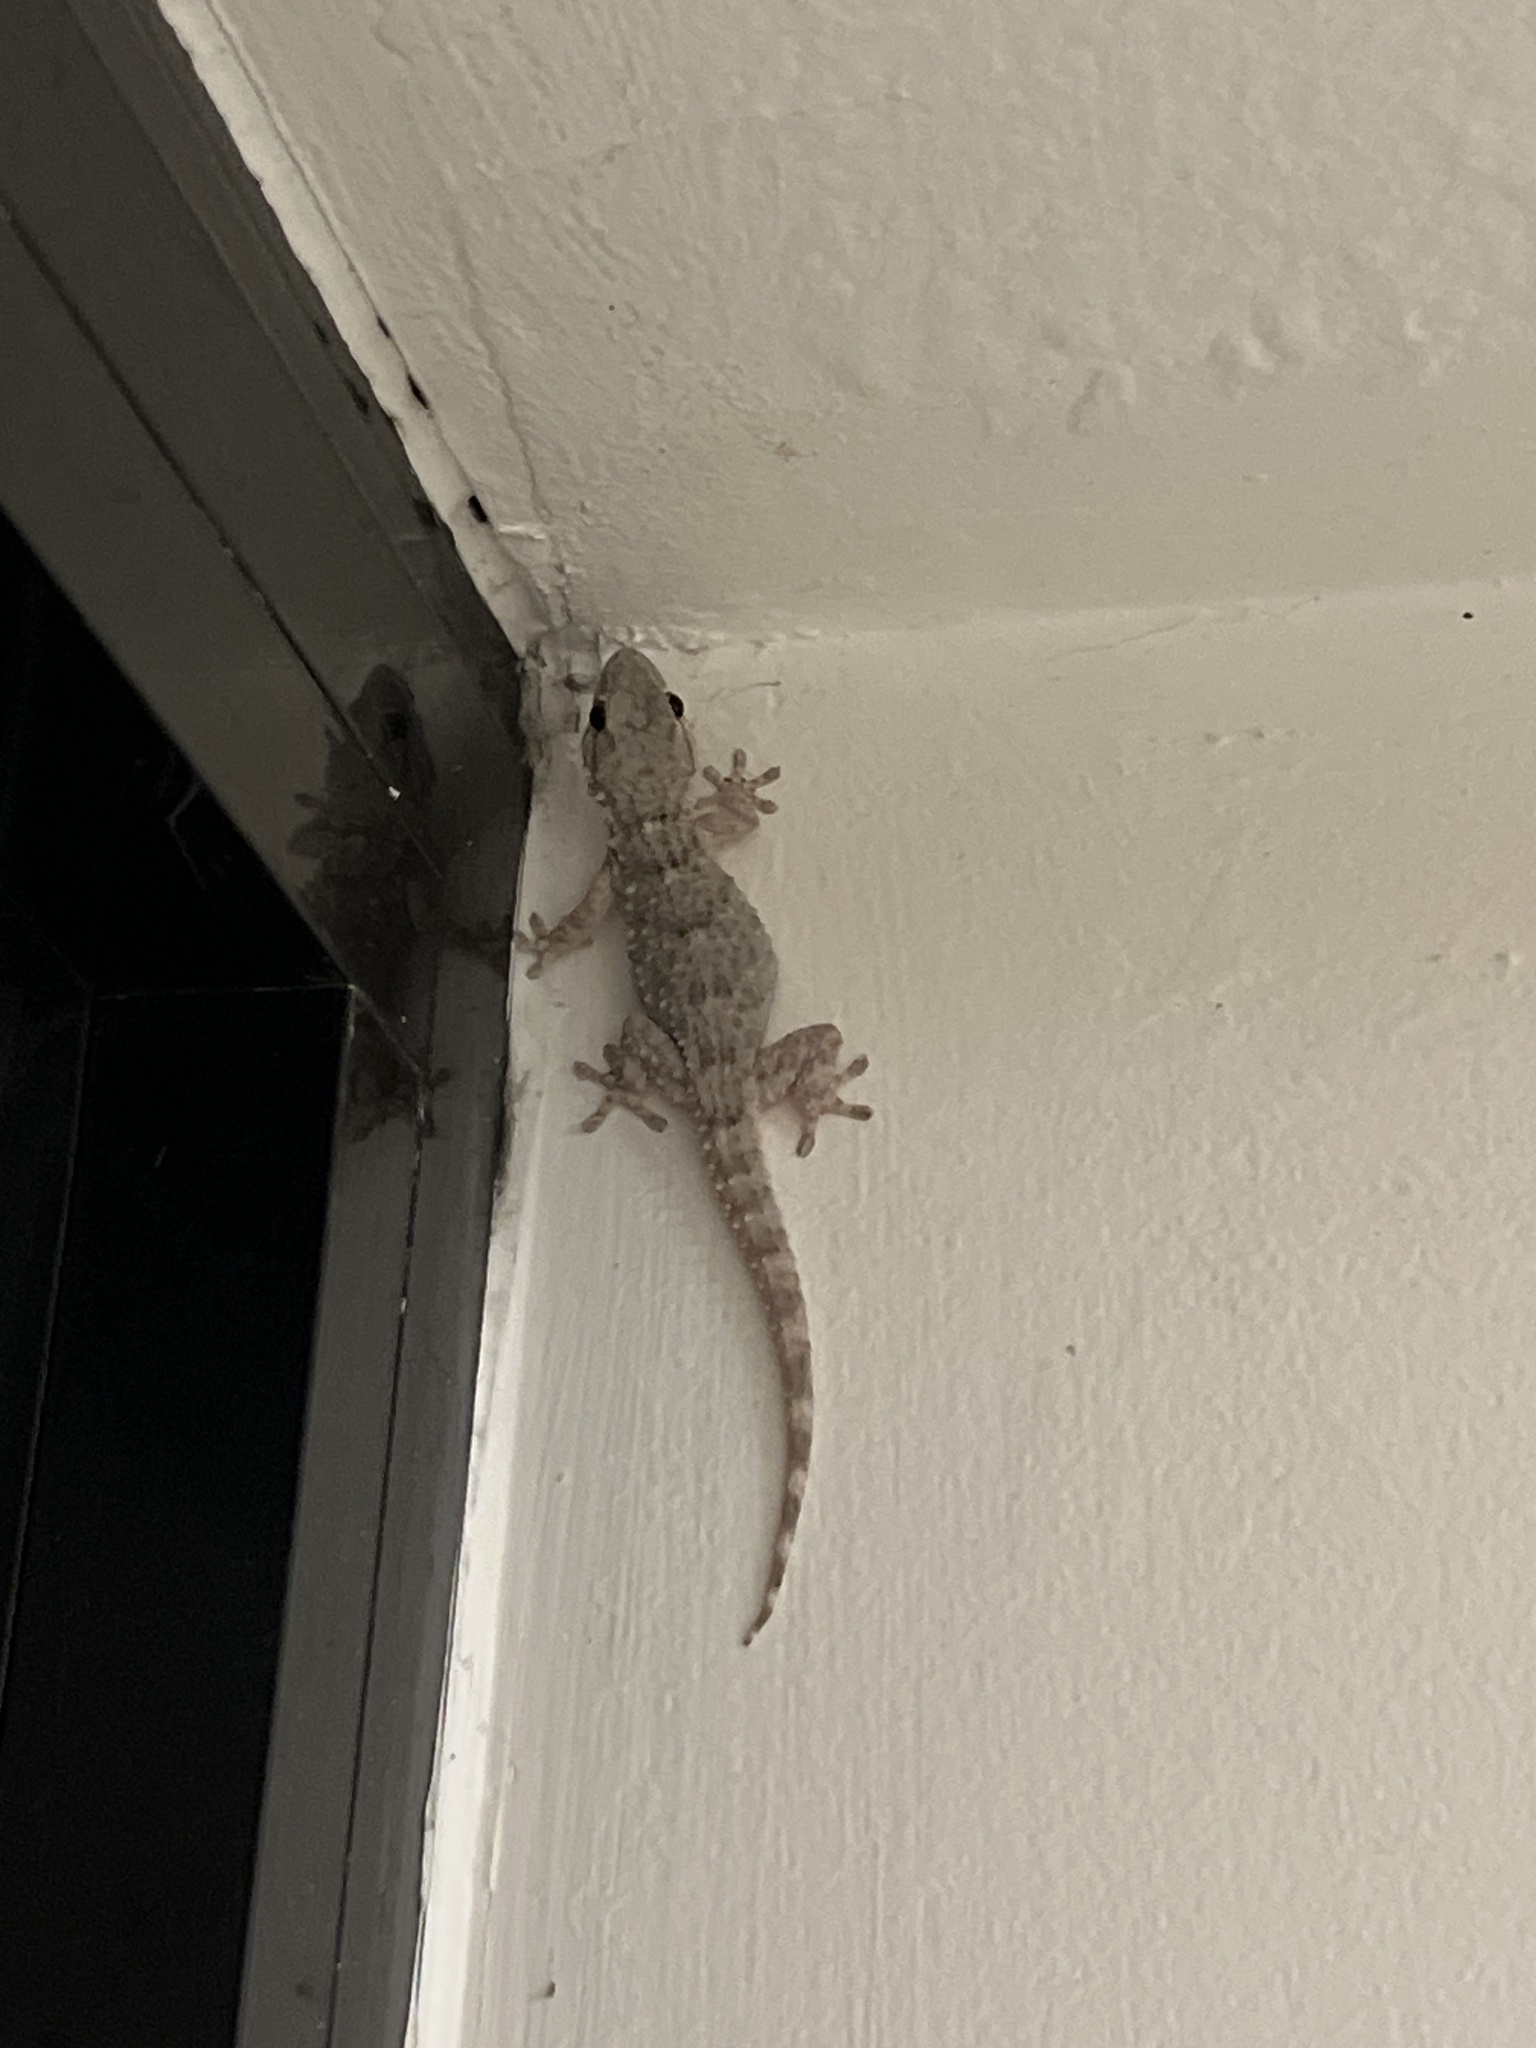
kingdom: Animalia
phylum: Chordata
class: Squamata
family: Phyllodactylidae
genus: Tarentola
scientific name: Tarentola mauritanica
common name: Moorish gecko
